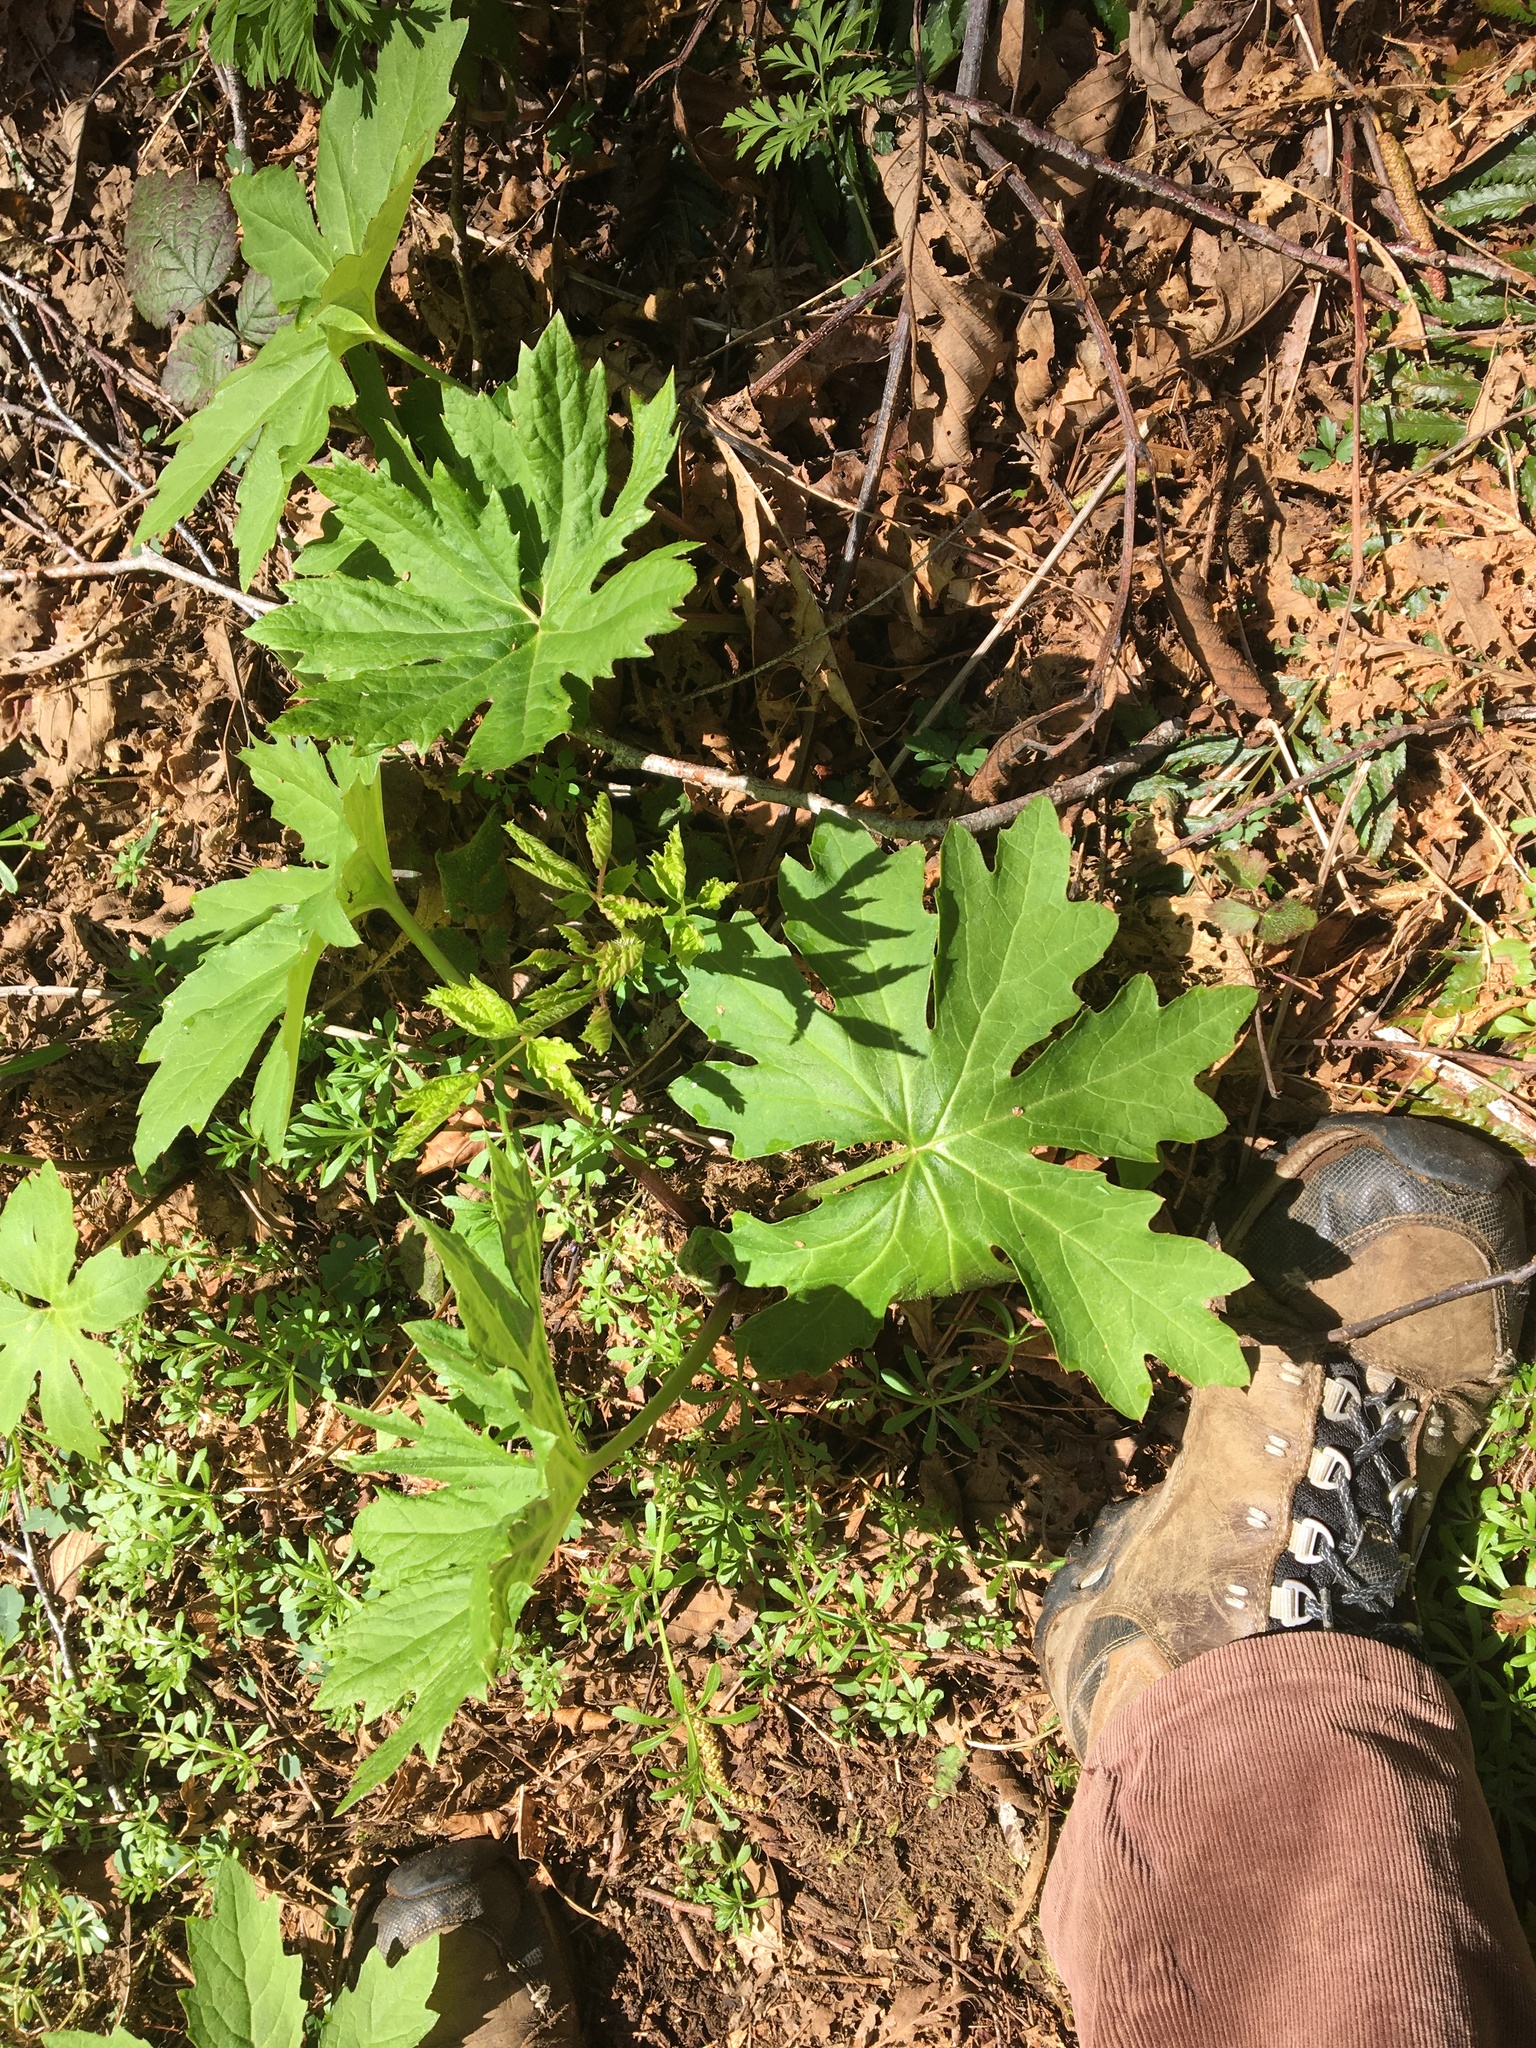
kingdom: Plantae
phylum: Tracheophyta
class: Magnoliopsida
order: Asterales
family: Asteraceae
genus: Petasites
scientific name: Petasites frigidus
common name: Arctic butterbur
